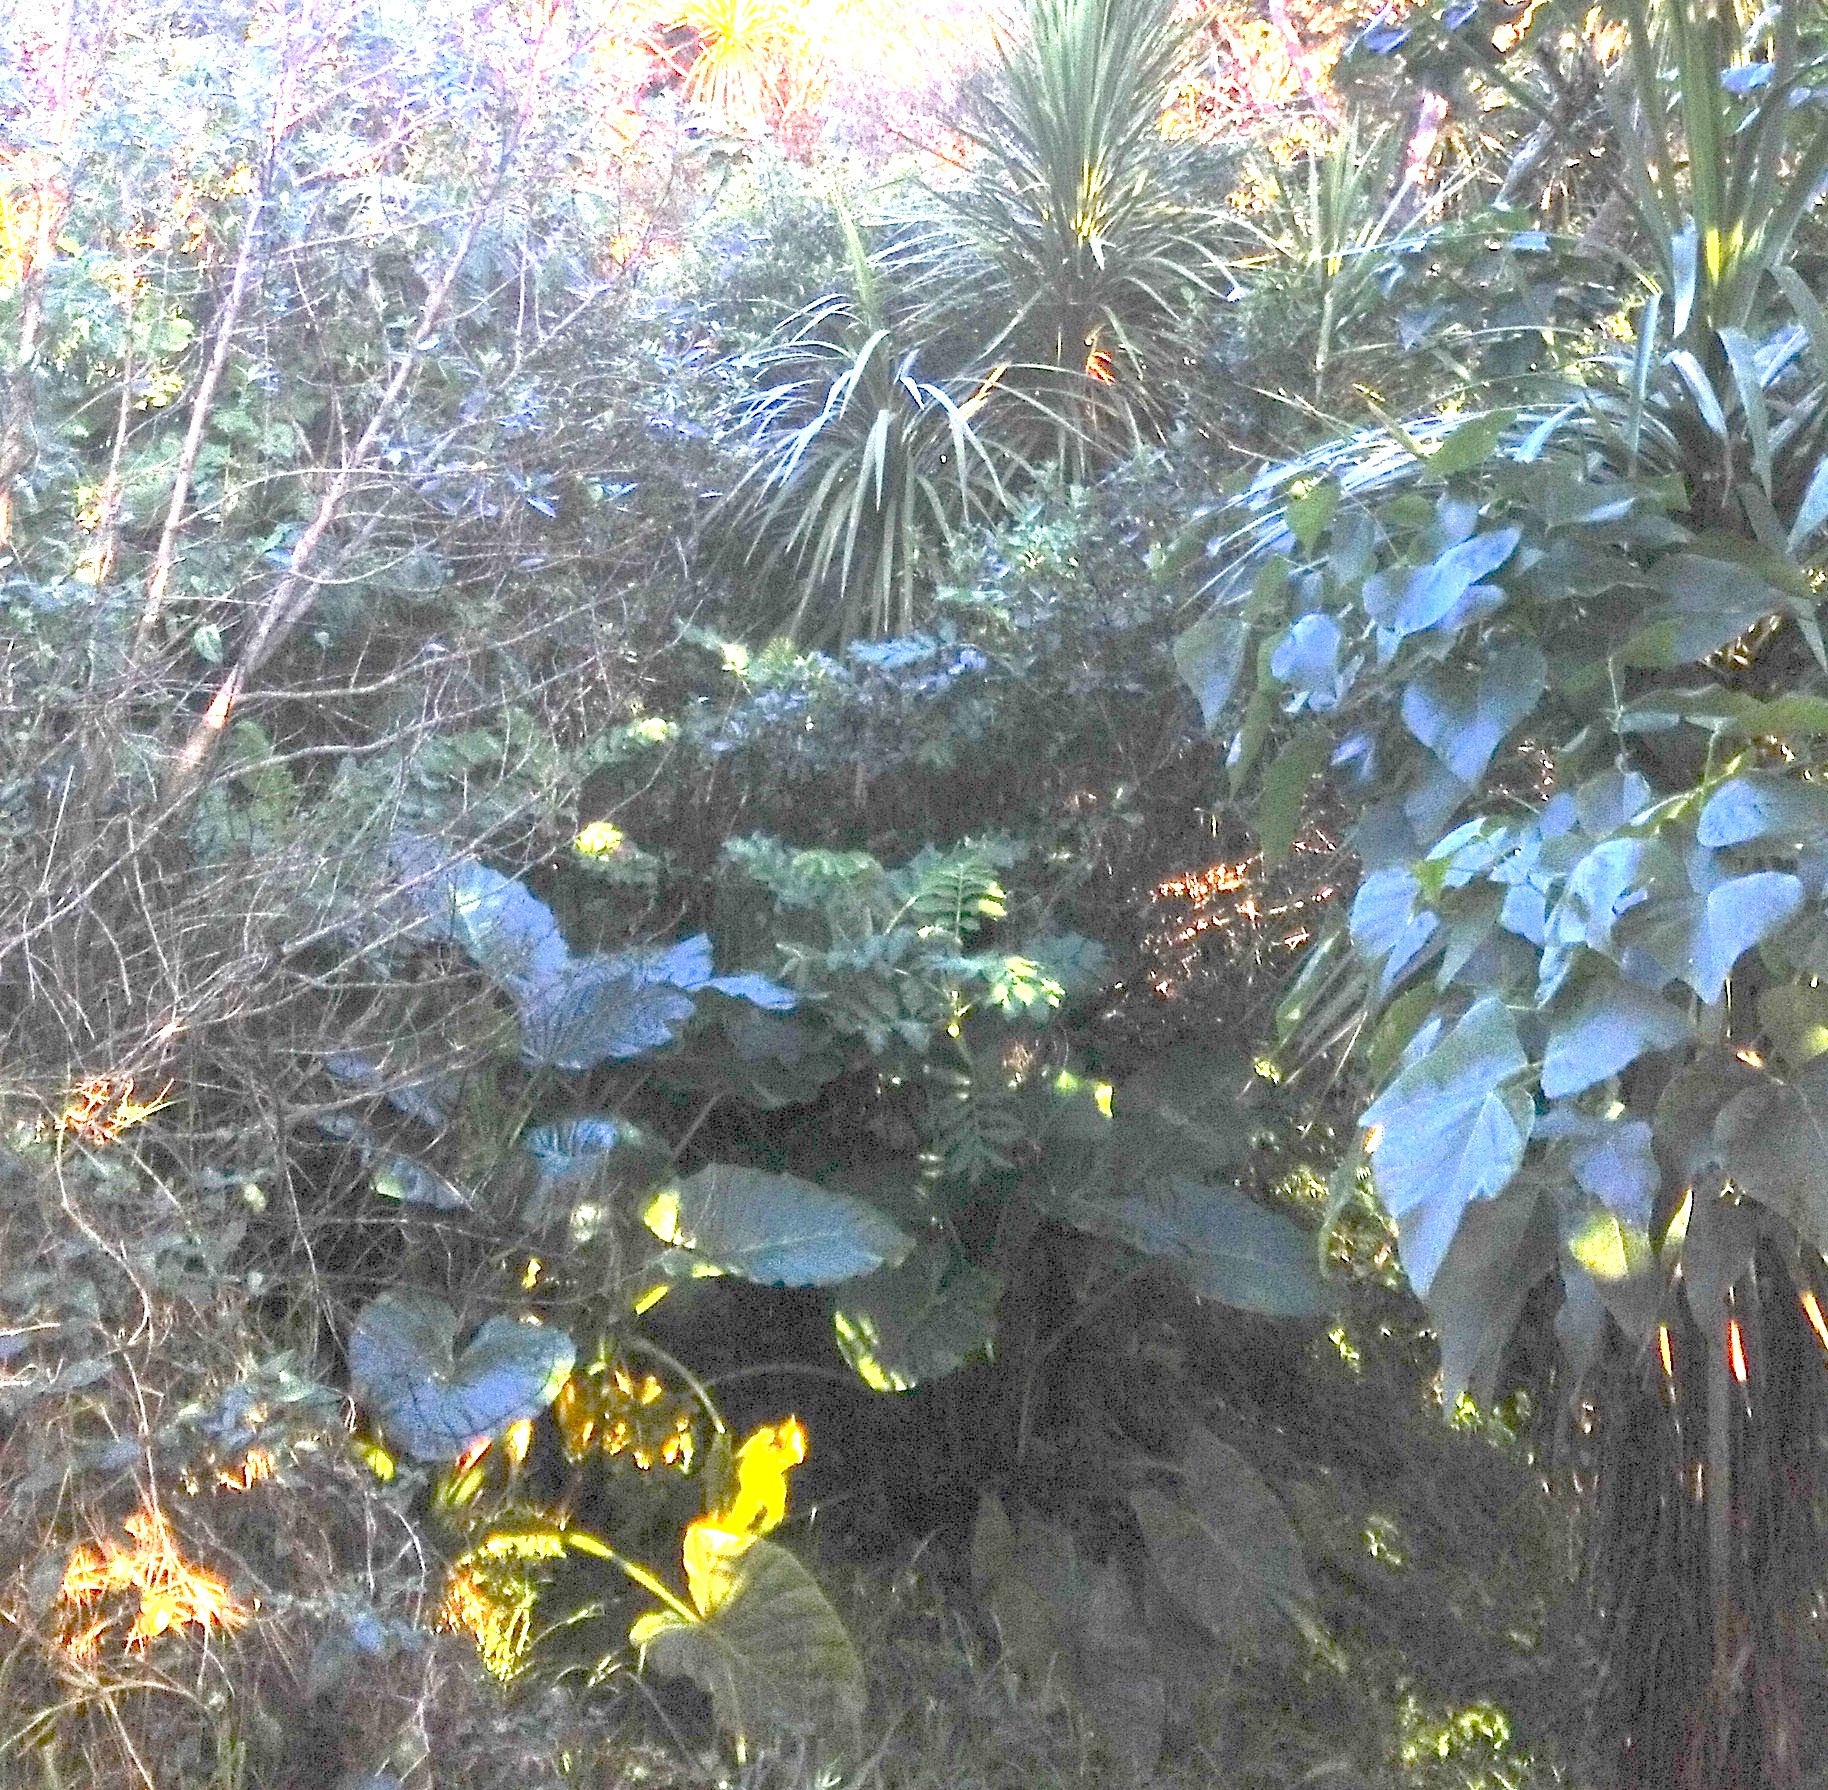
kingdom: Plantae
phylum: Tracheophyta
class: Liliopsida
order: Alismatales
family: Araceae
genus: Alocasia
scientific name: Alocasia brisbanensis
